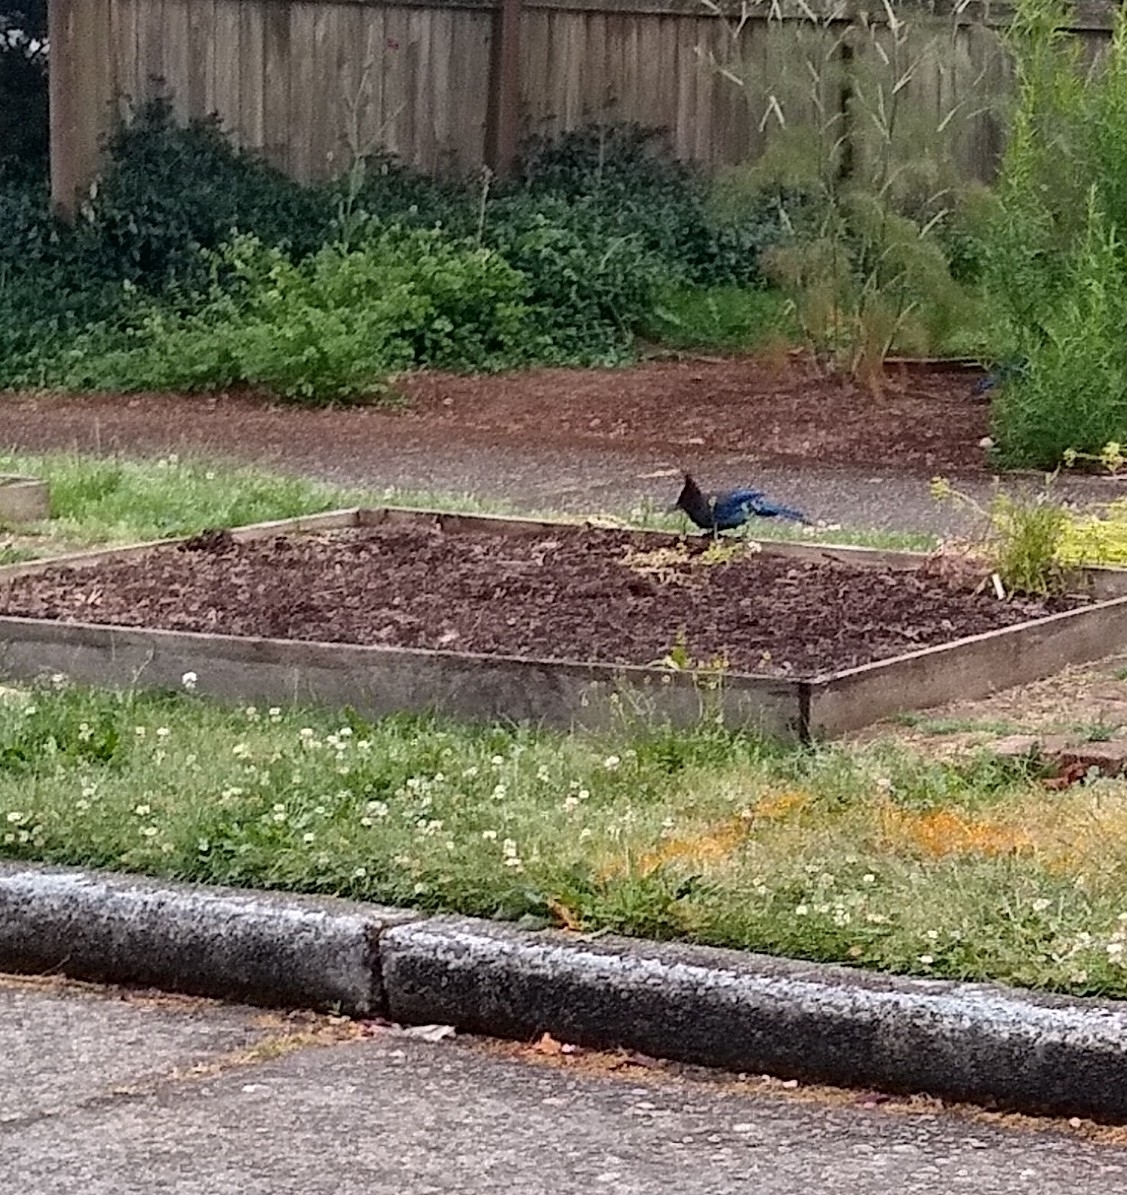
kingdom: Animalia
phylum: Chordata
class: Aves
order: Passeriformes
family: Corvidae
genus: Cyanocitta
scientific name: Cyanocitta stelleri
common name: Steller's jay
